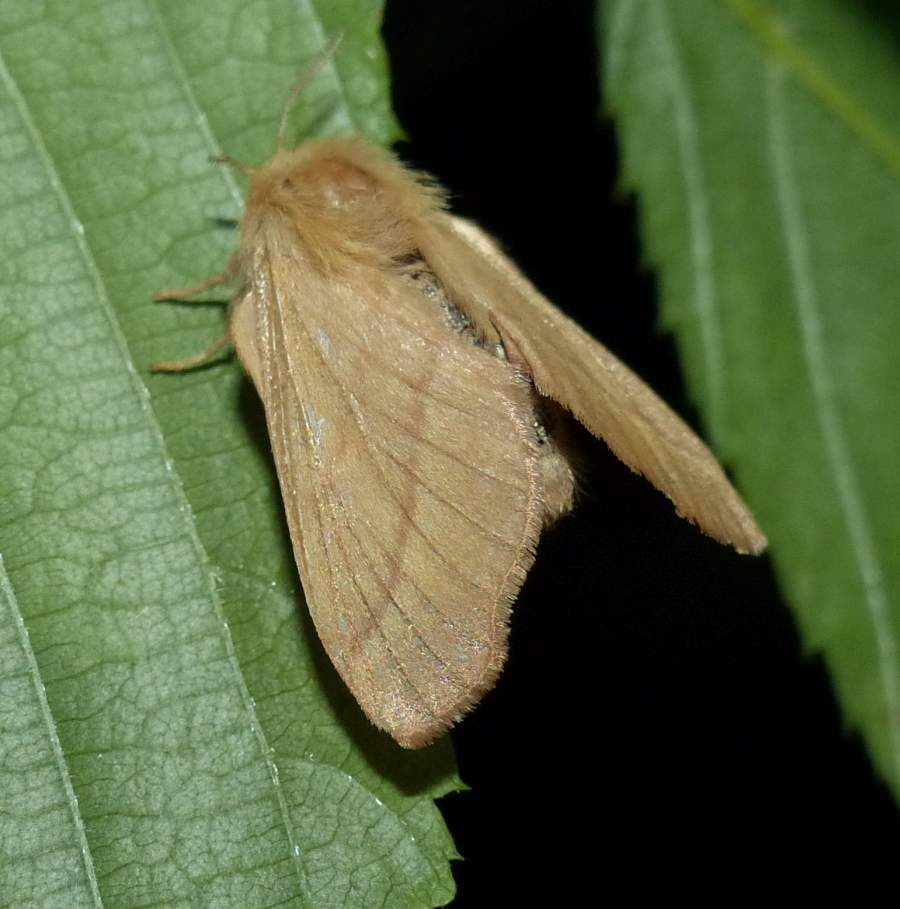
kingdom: Animalia
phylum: Arthropoda
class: Insecta
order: Lepidoptera
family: Lasiocampidae
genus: Malacosoma
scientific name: Malacosoma disstria
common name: Forest tent caterpillar
